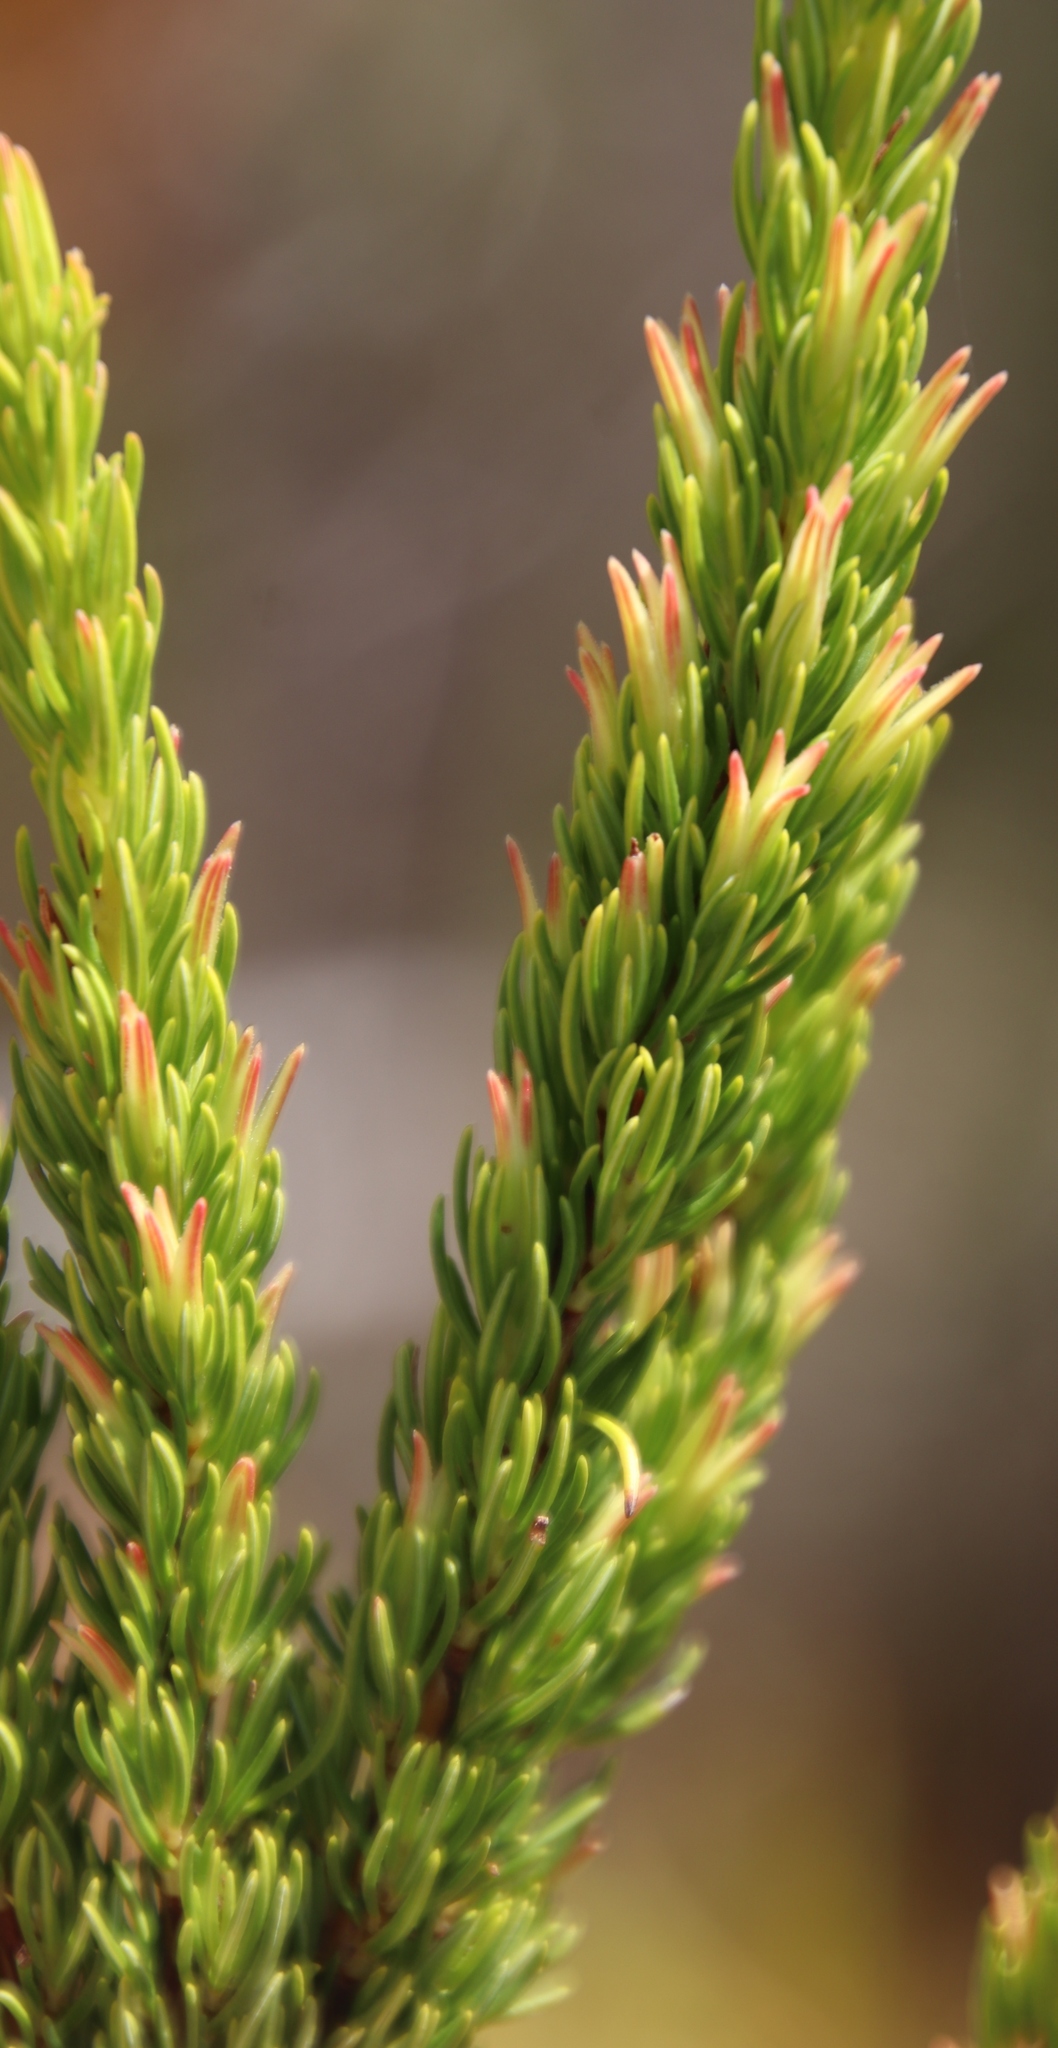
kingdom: Plantae
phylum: Tracheophyta
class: Magnoliopsida
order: Ericales
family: Ericaceae
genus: Erica
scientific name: Erica plukenetii
